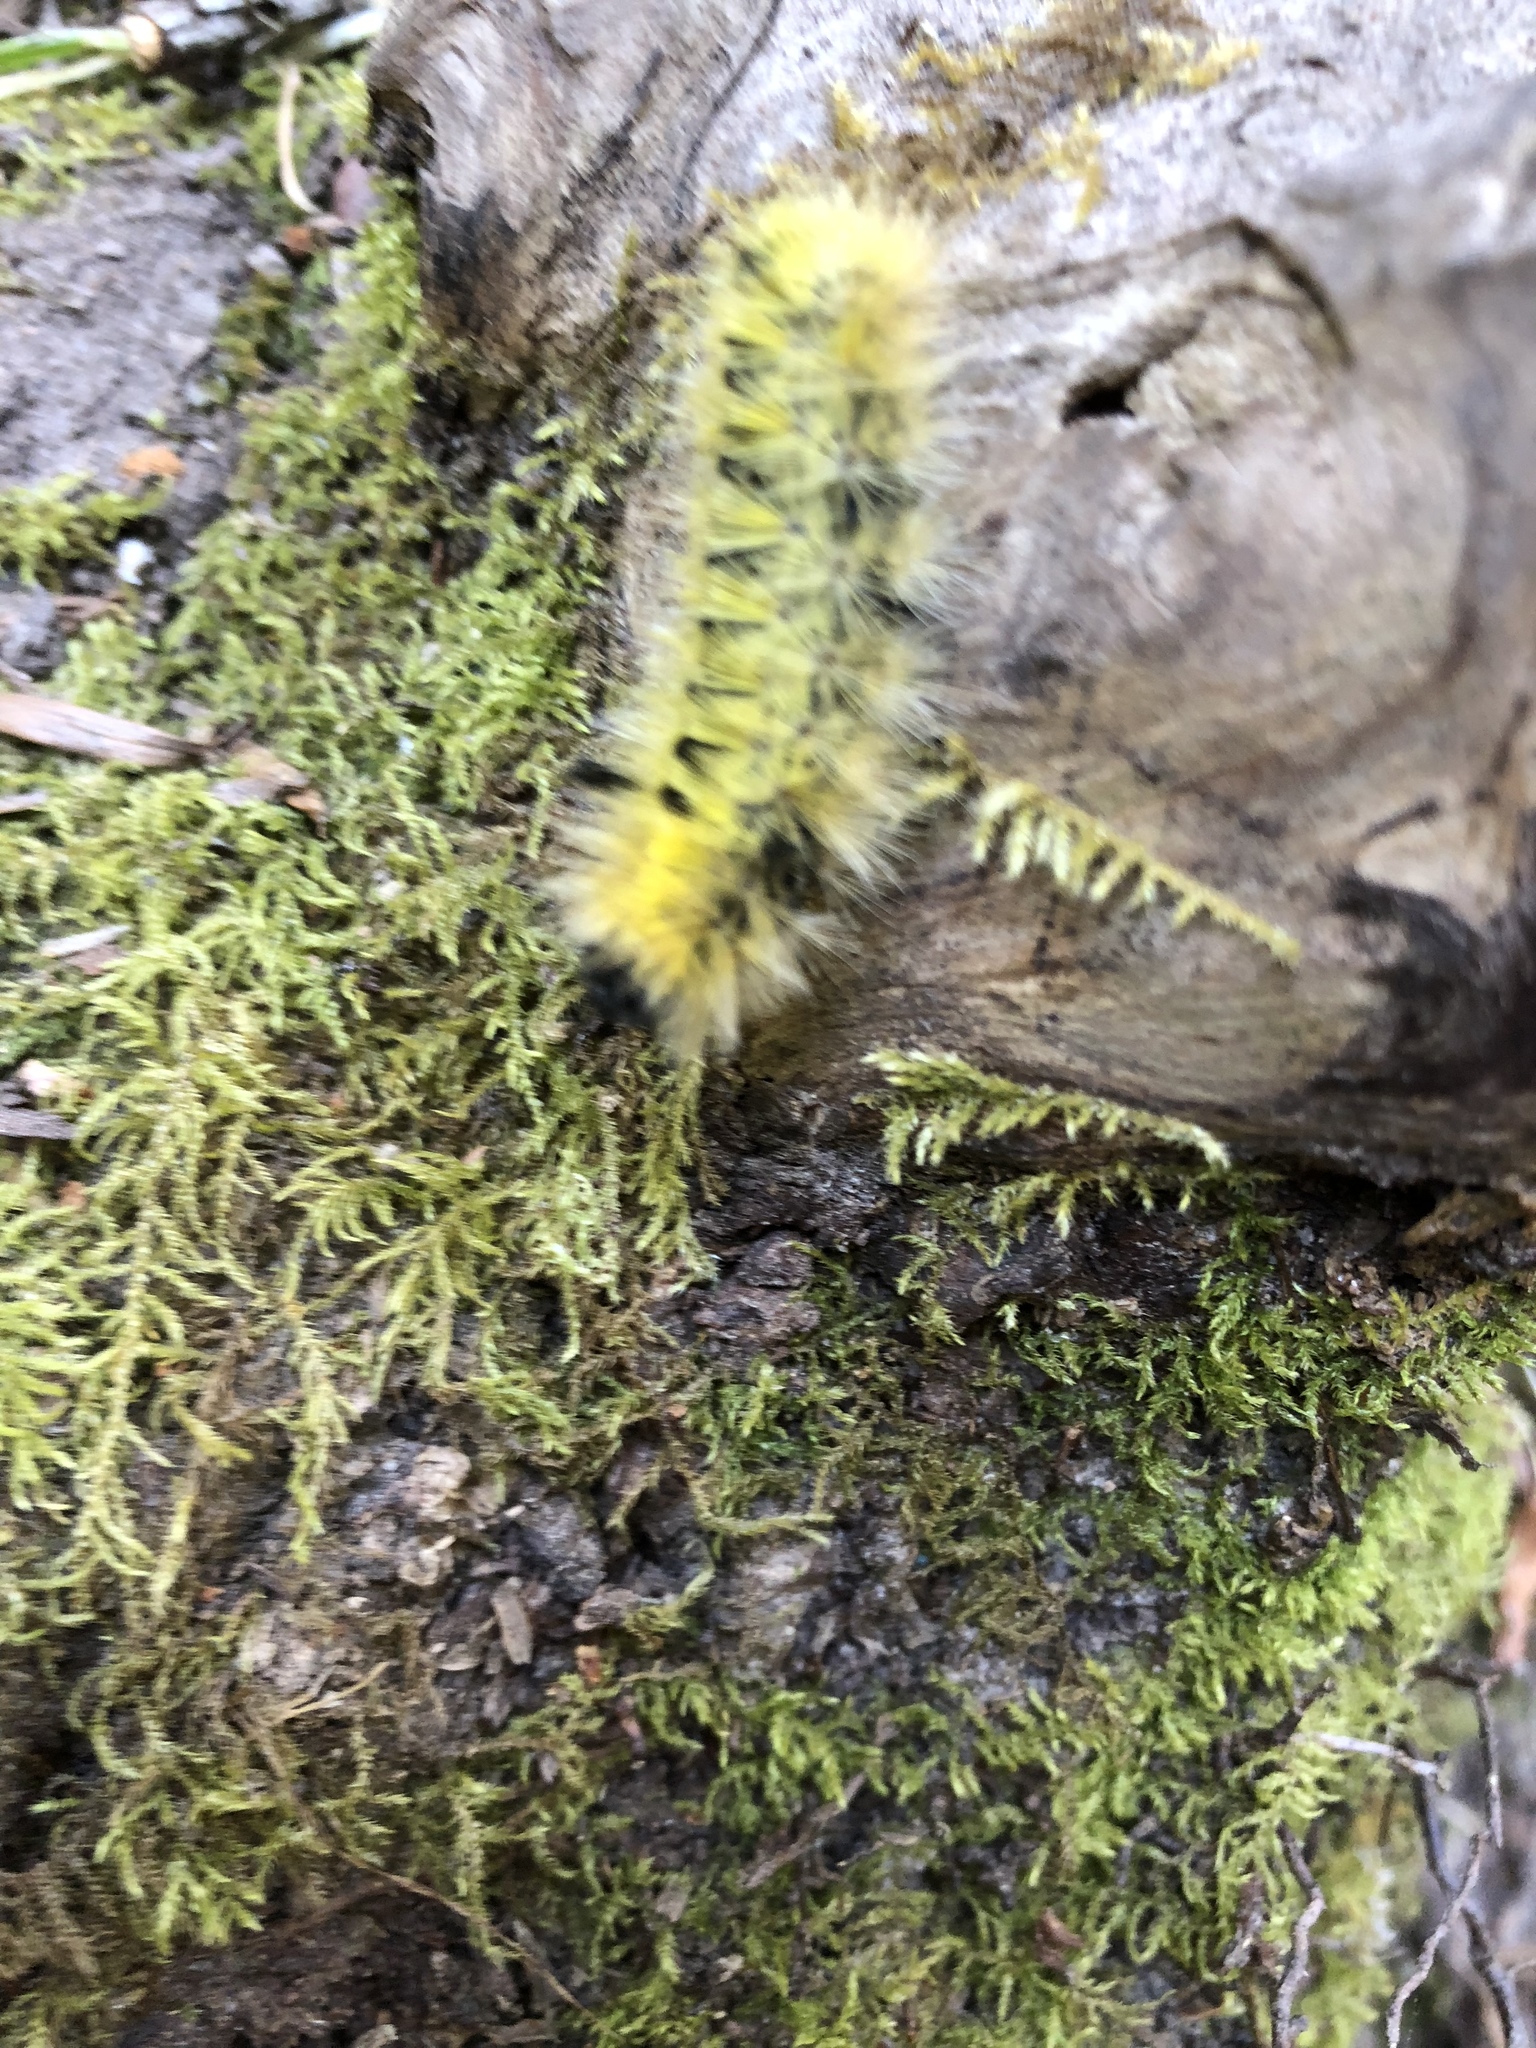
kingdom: Animalia
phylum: Arthropoda
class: Insecta
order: Lepidoptera
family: Erebidae
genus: Lophocampa
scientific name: Lophocampa argentata
